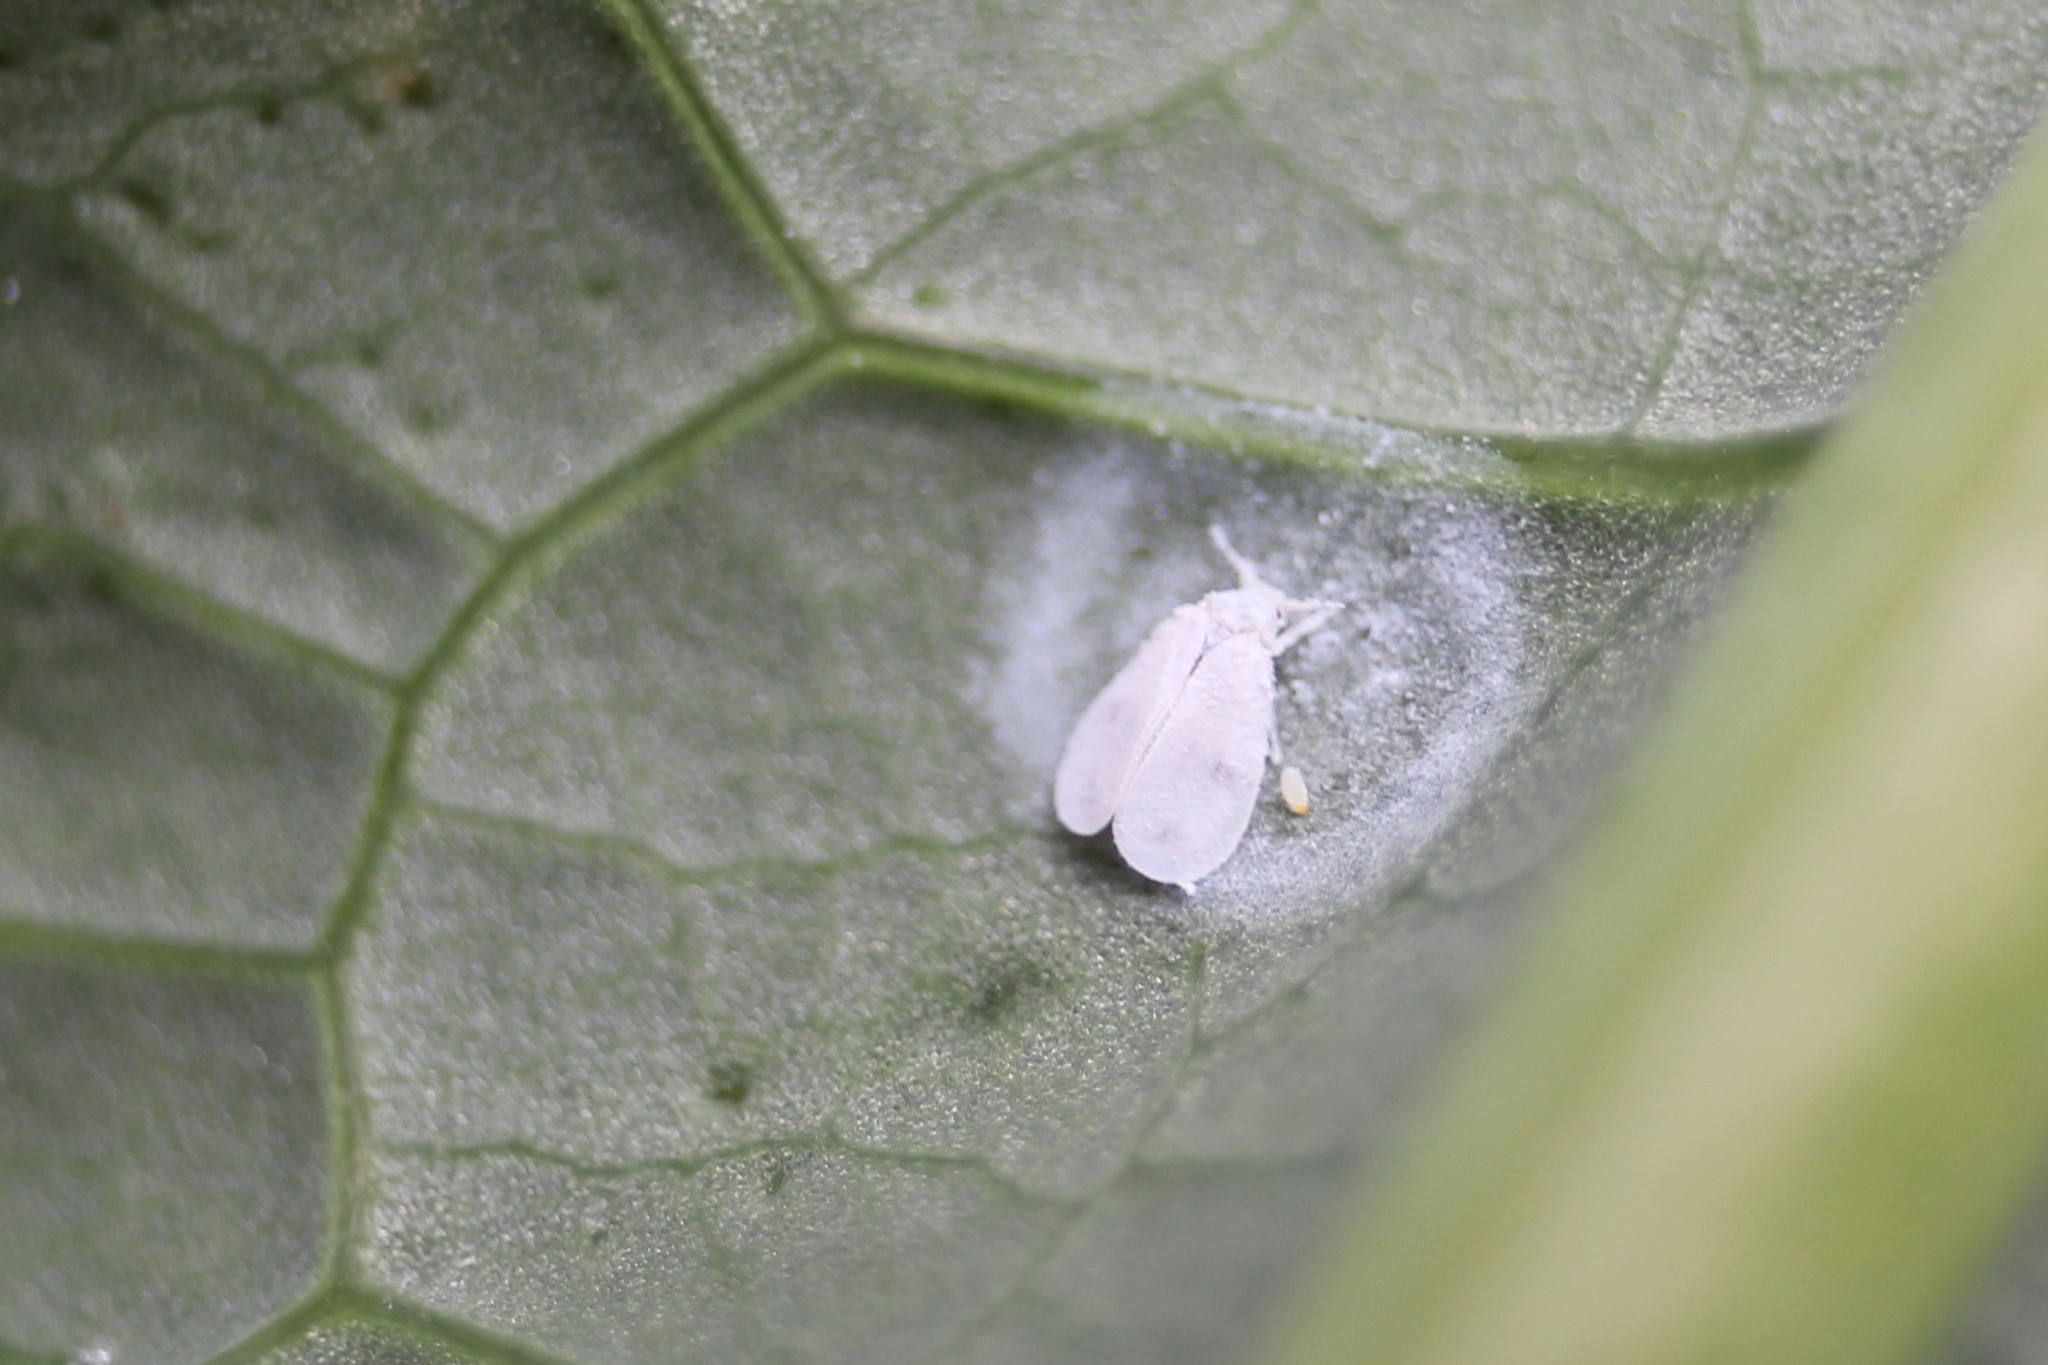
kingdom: Animalia
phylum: Arthropoda
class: Insecta
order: Hemiptera
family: Aleyrodidae
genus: Aleyrodes
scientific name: Aleyrodes proletella
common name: Cabbage whitefly
